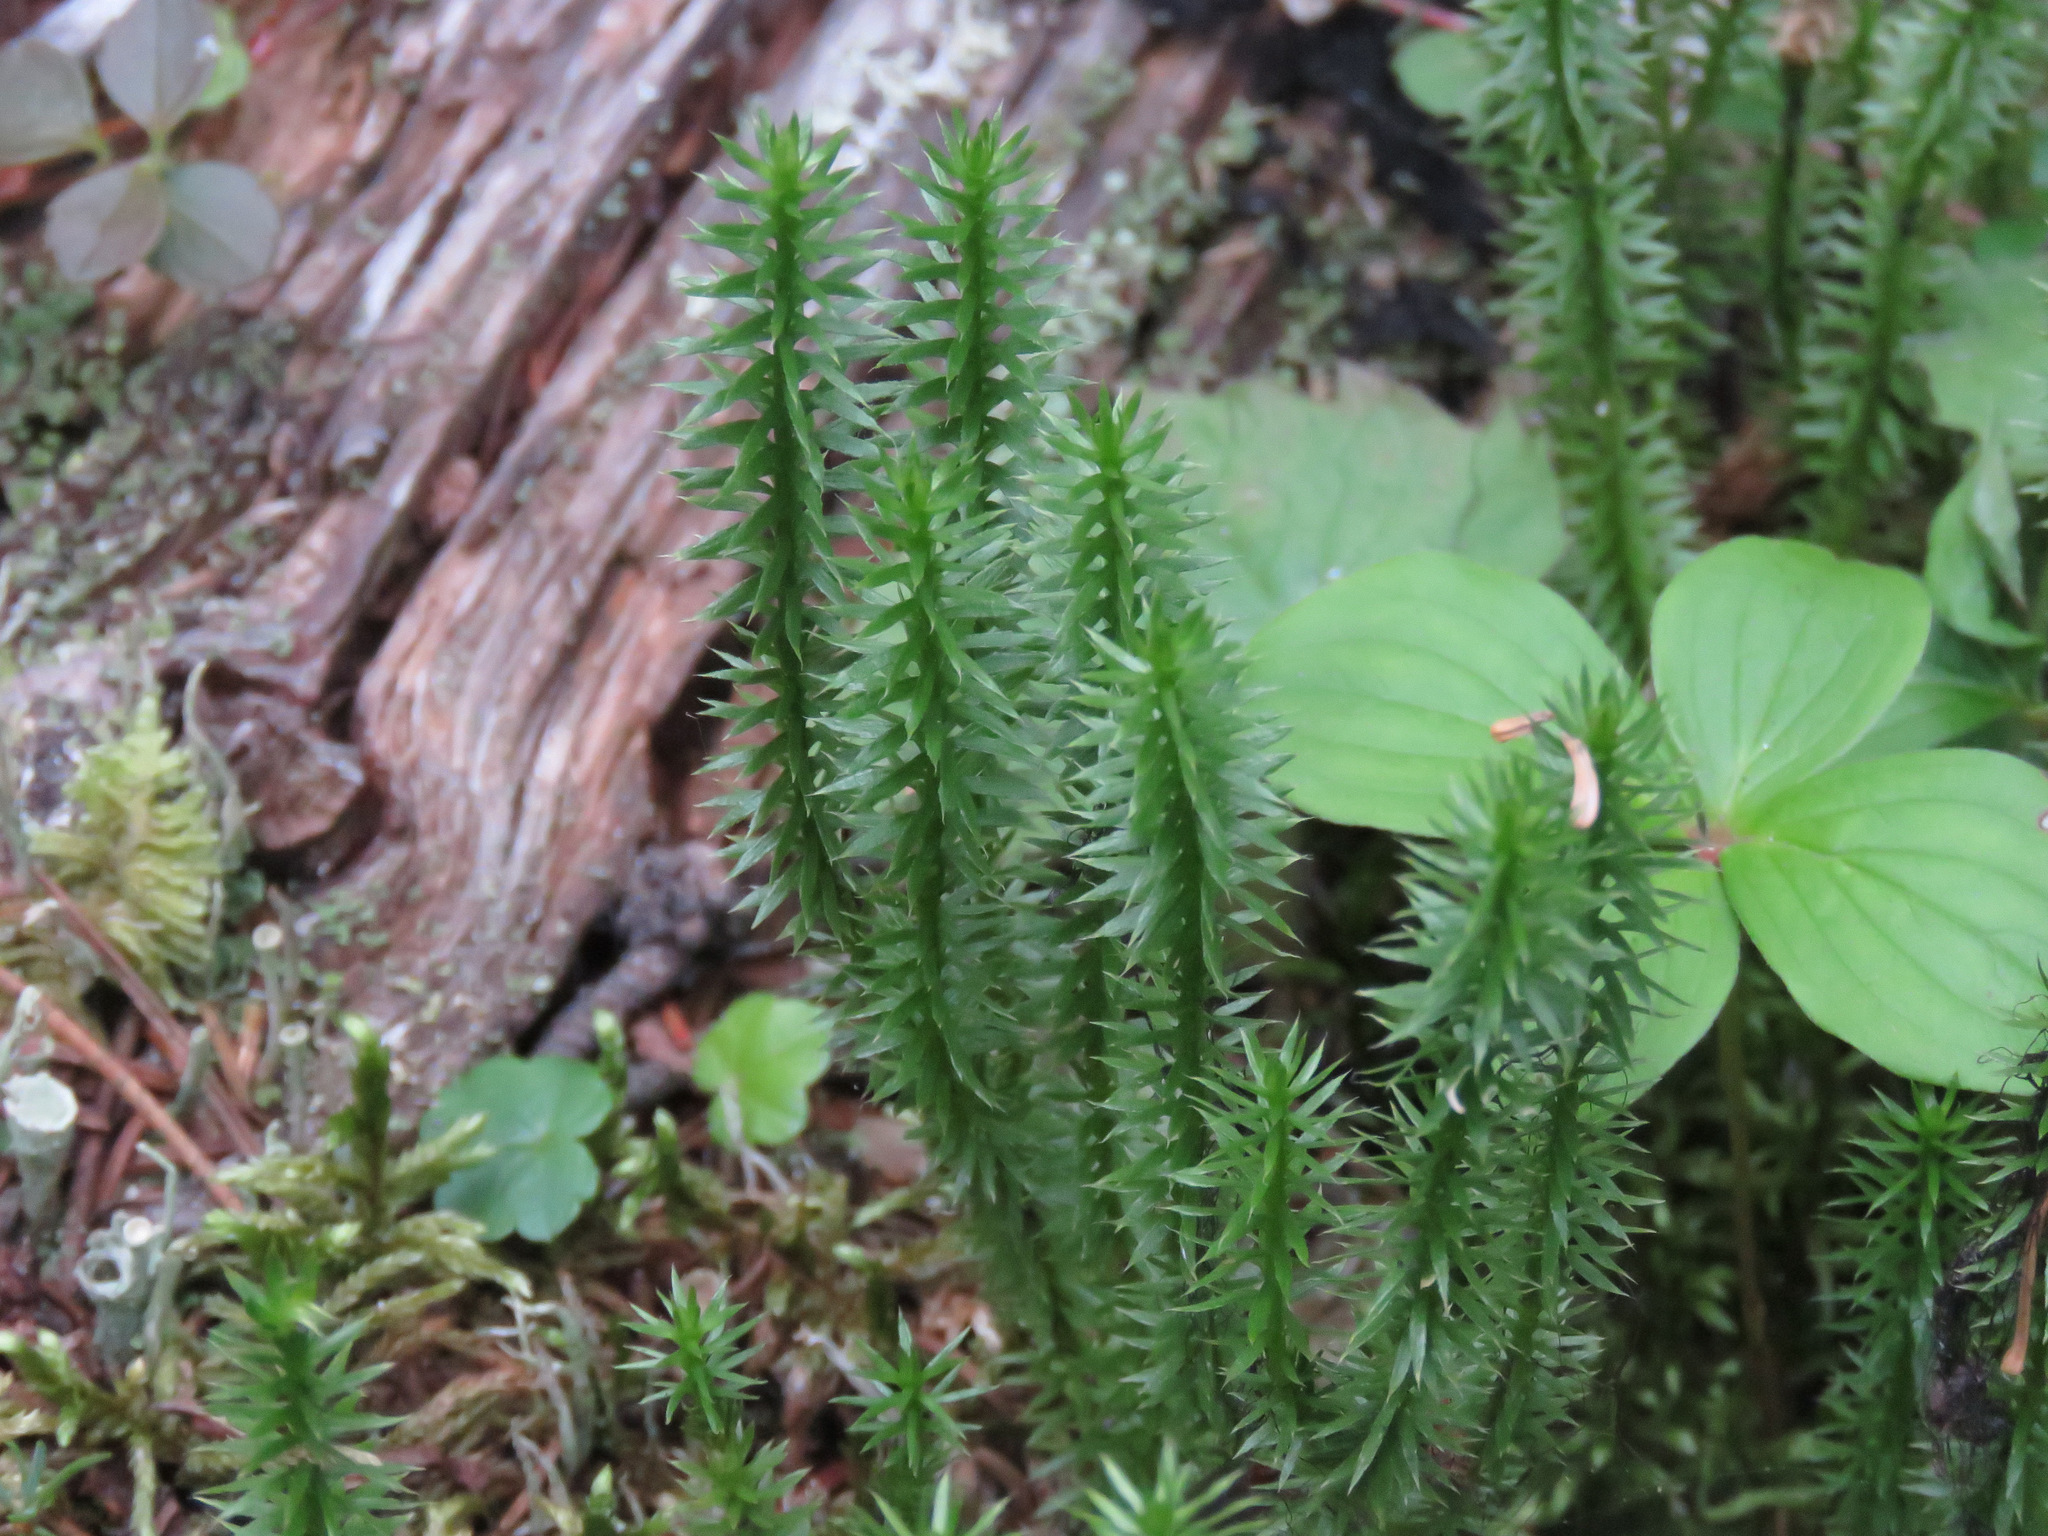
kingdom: Plantae
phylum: Tracheophyta
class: Lycopodiopsida
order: Lycopodiales
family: Lycopodiaceae
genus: Spinulum
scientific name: Spinulum annotinum
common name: Interrupted club-moss
